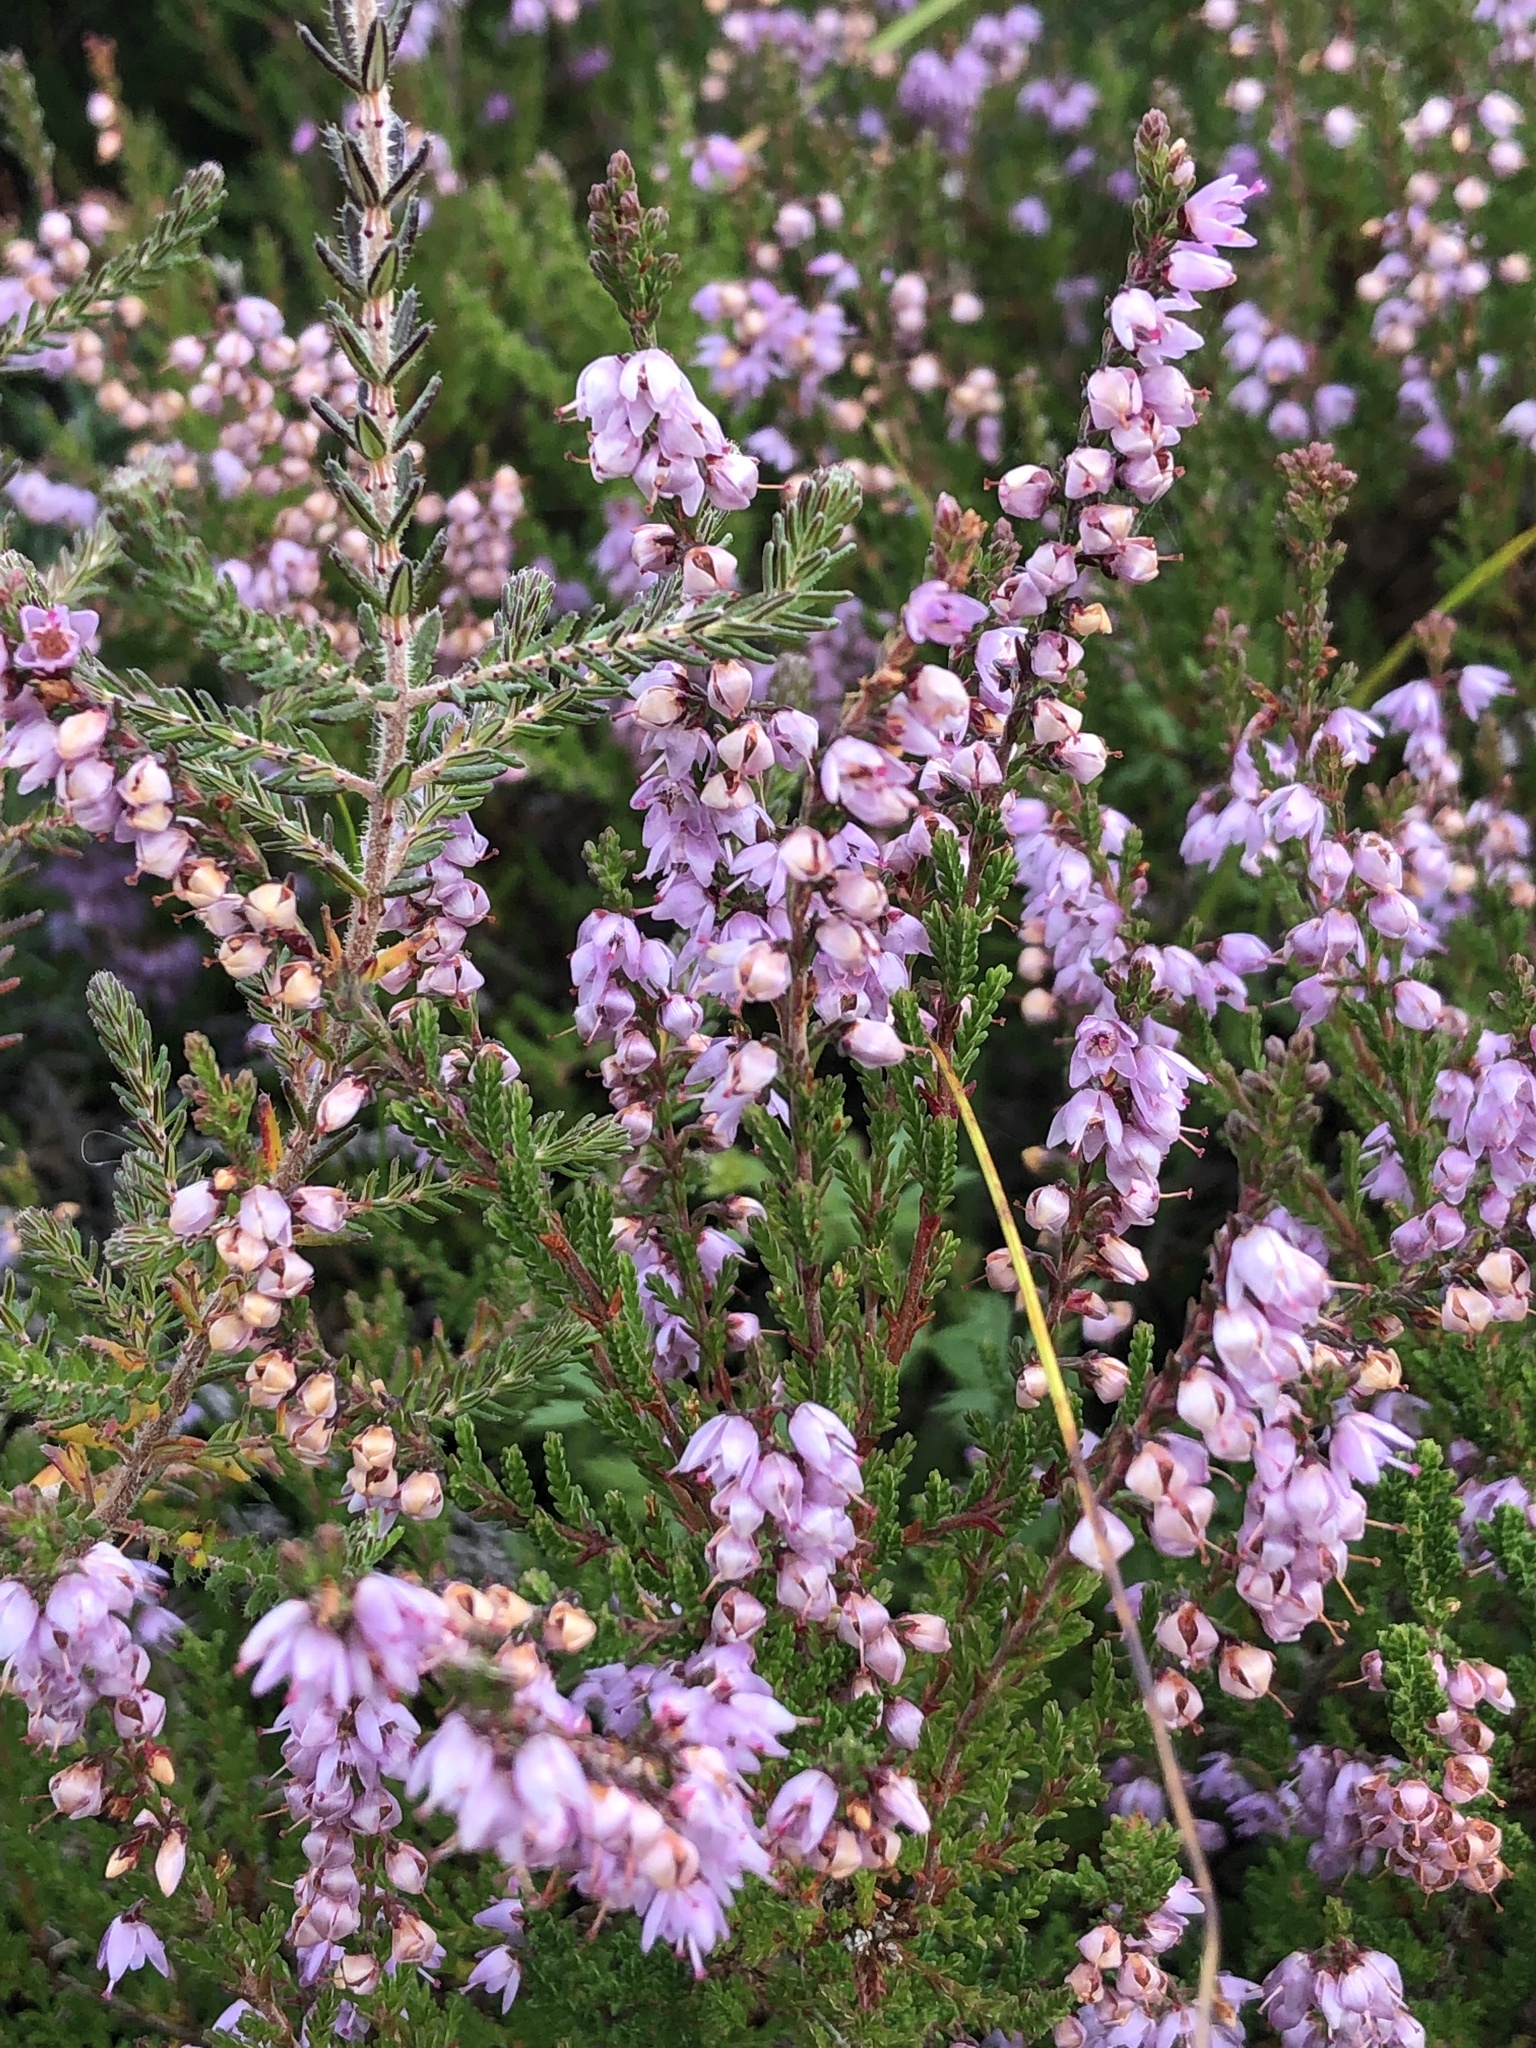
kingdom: Plantae
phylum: Tracheophyta
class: Magnoliopsida
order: Ericales
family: Ericaceae
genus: Calluna
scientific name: Calluna vulgaris
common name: Heather
